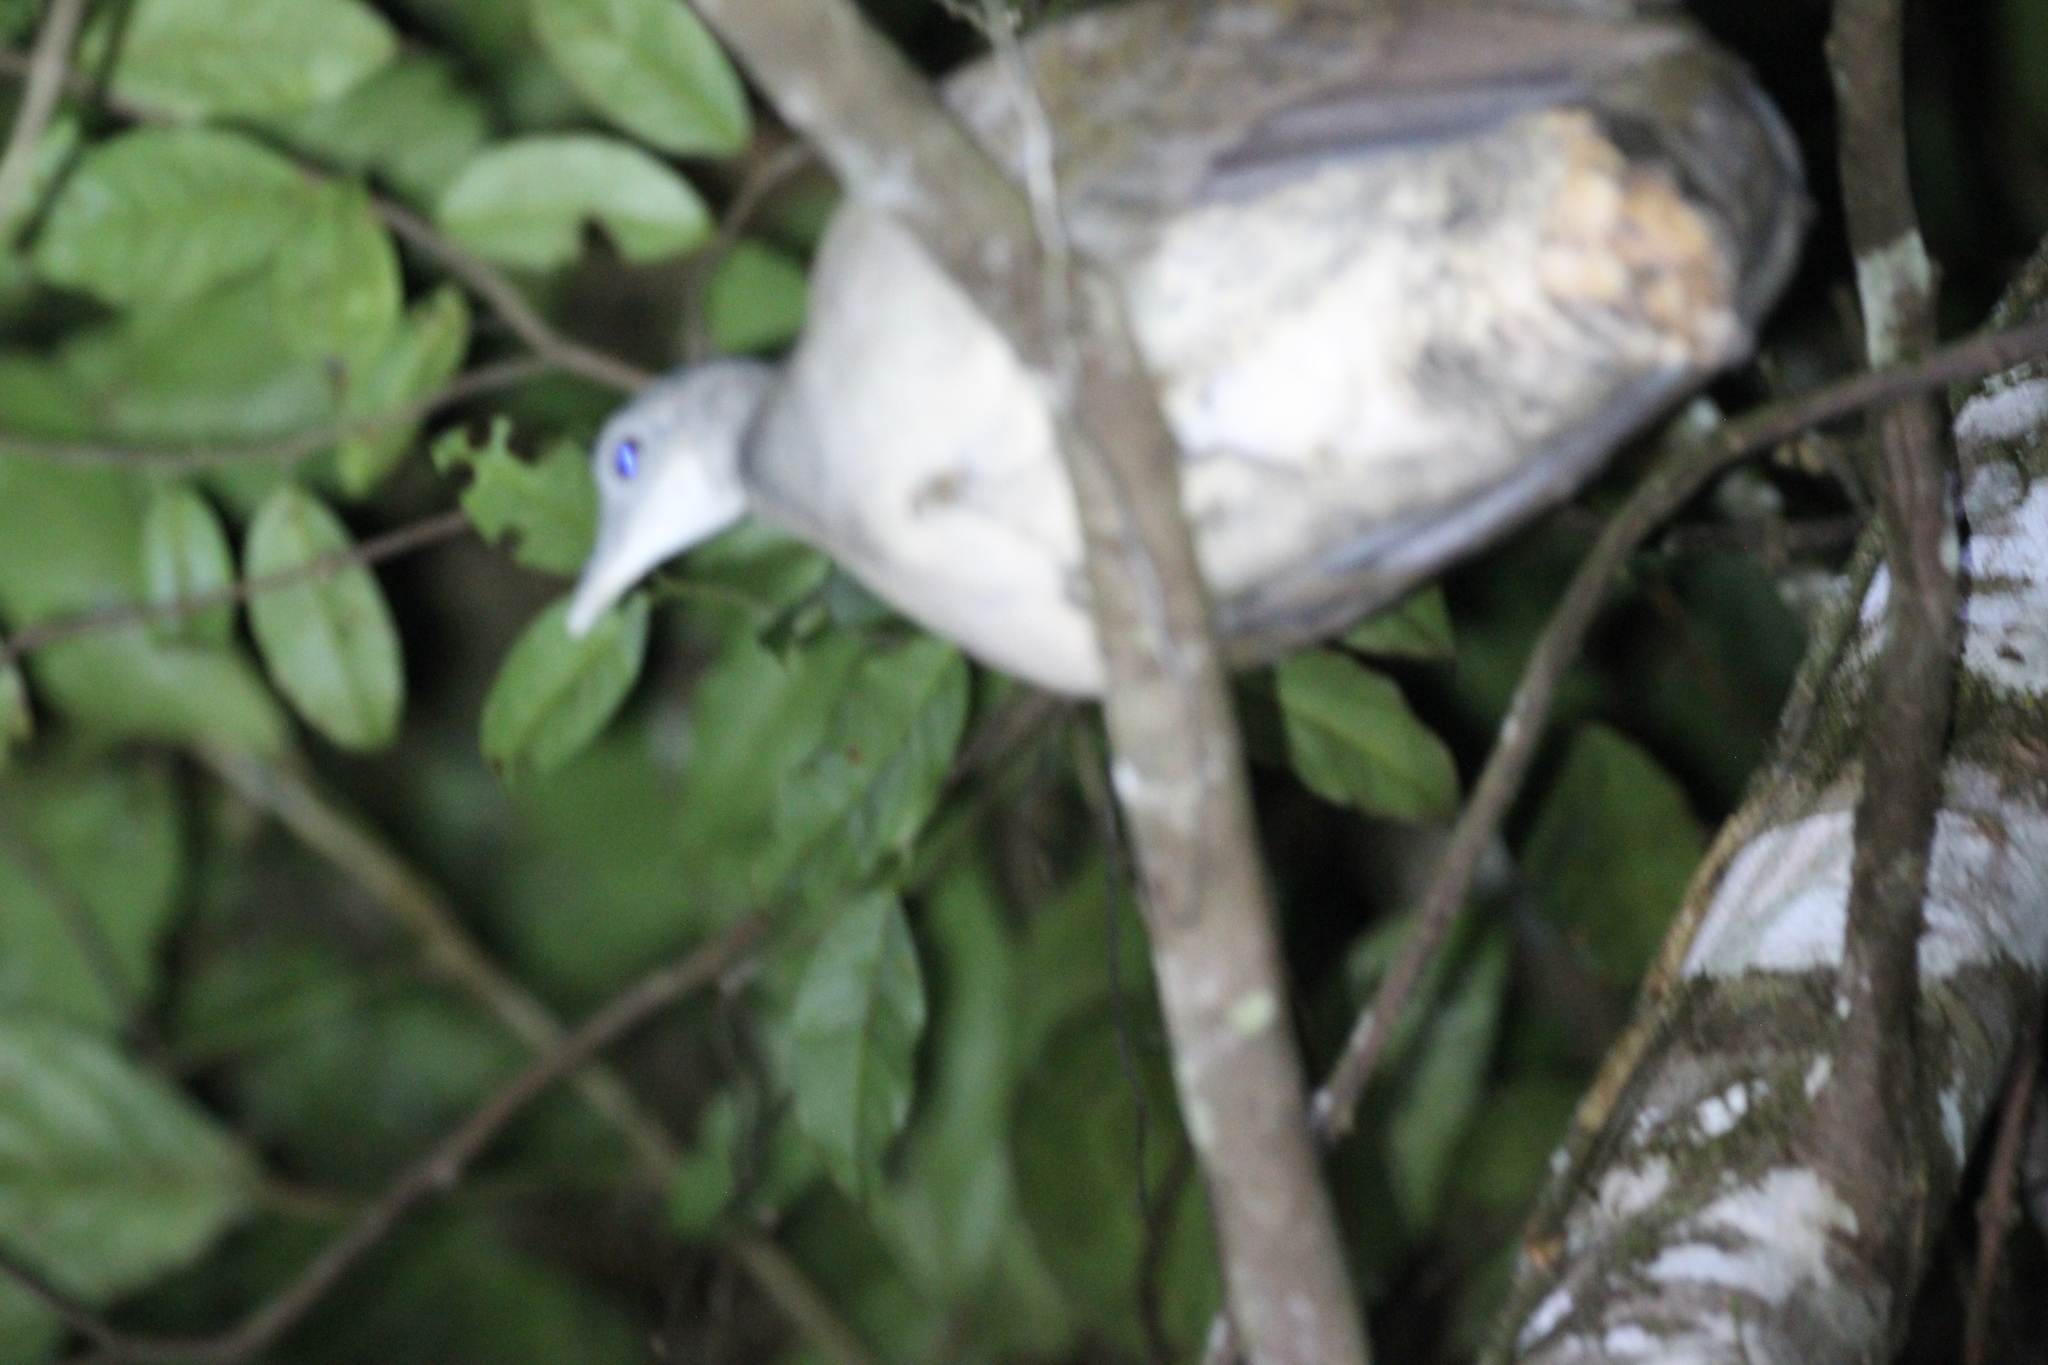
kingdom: Animalia
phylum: Chordata
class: Aves
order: Tinamiformes
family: Tinamidae
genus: Tinamus
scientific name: Tinamus major
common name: Great tinamou
